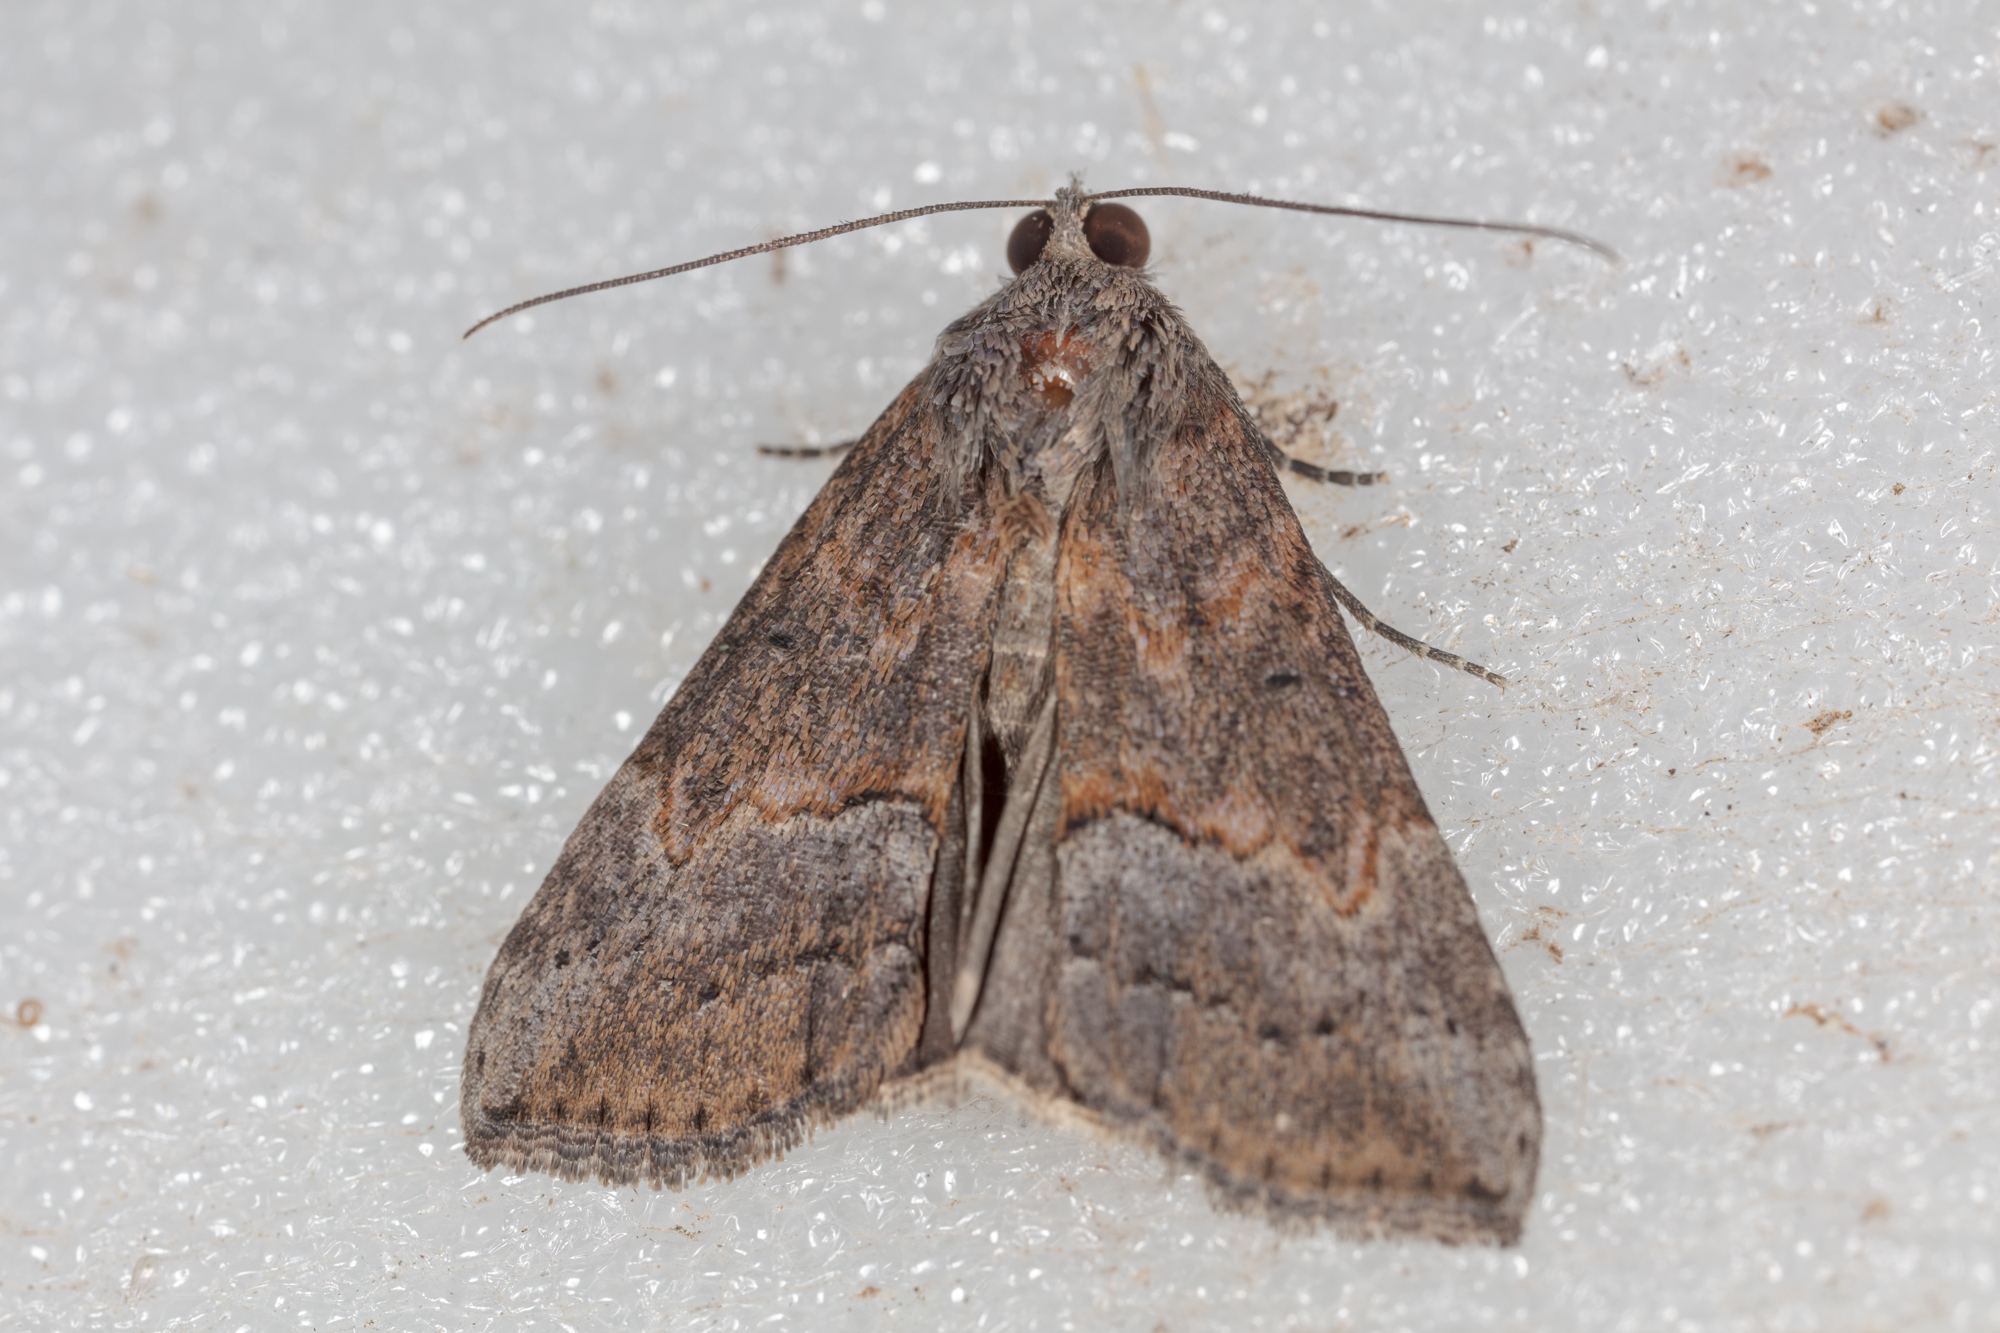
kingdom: Animalia
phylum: Arthropoda
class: Insecta
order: Lepidoptera
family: Erebidae
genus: Hypena
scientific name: Hypena scabra
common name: Green cloverworm
